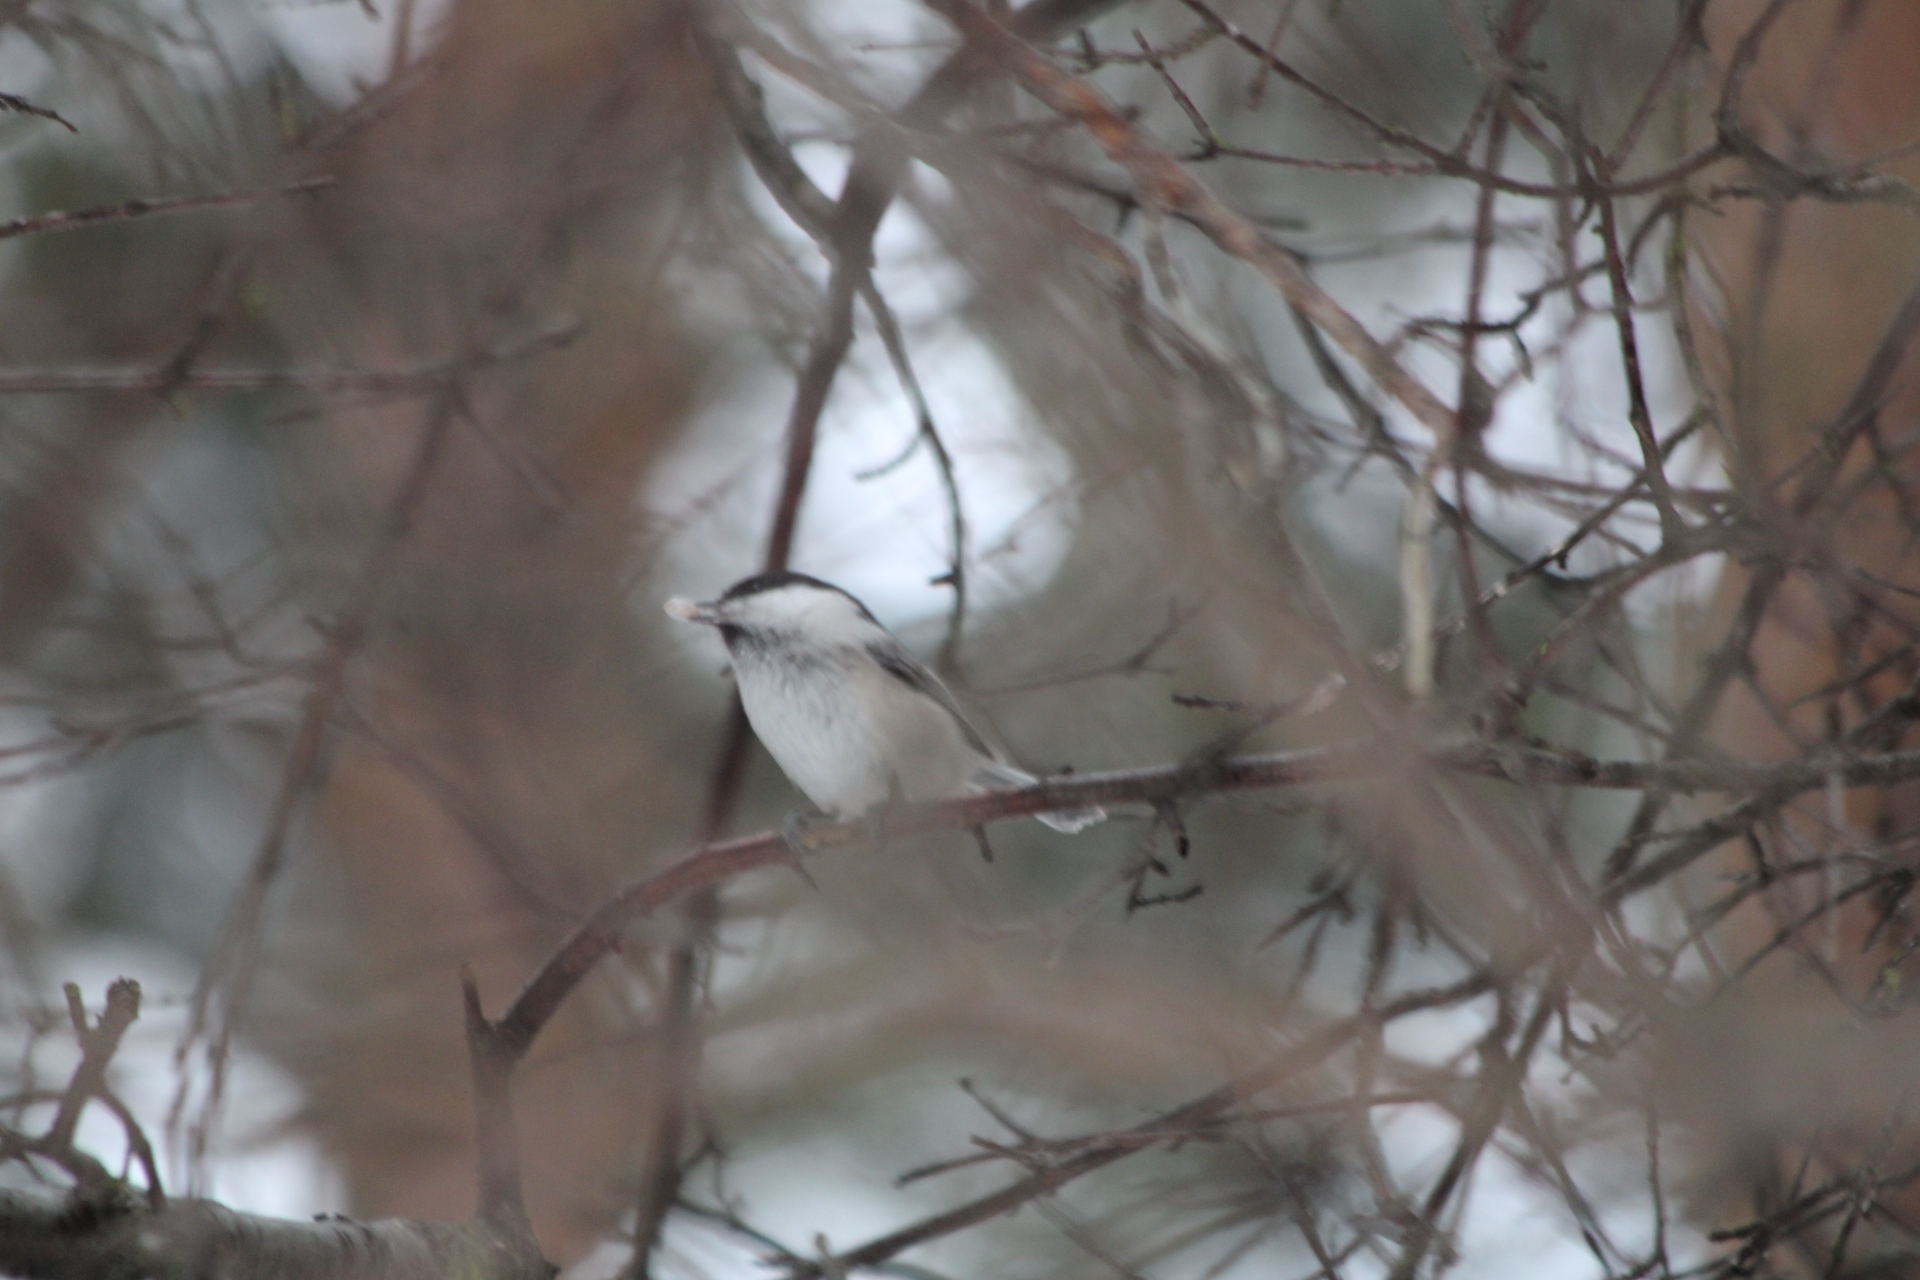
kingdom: Animalia
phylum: Chordata
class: Aves
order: Passeriformes
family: Paridae
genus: Poecile
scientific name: Poecile montanus
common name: Willow tit
